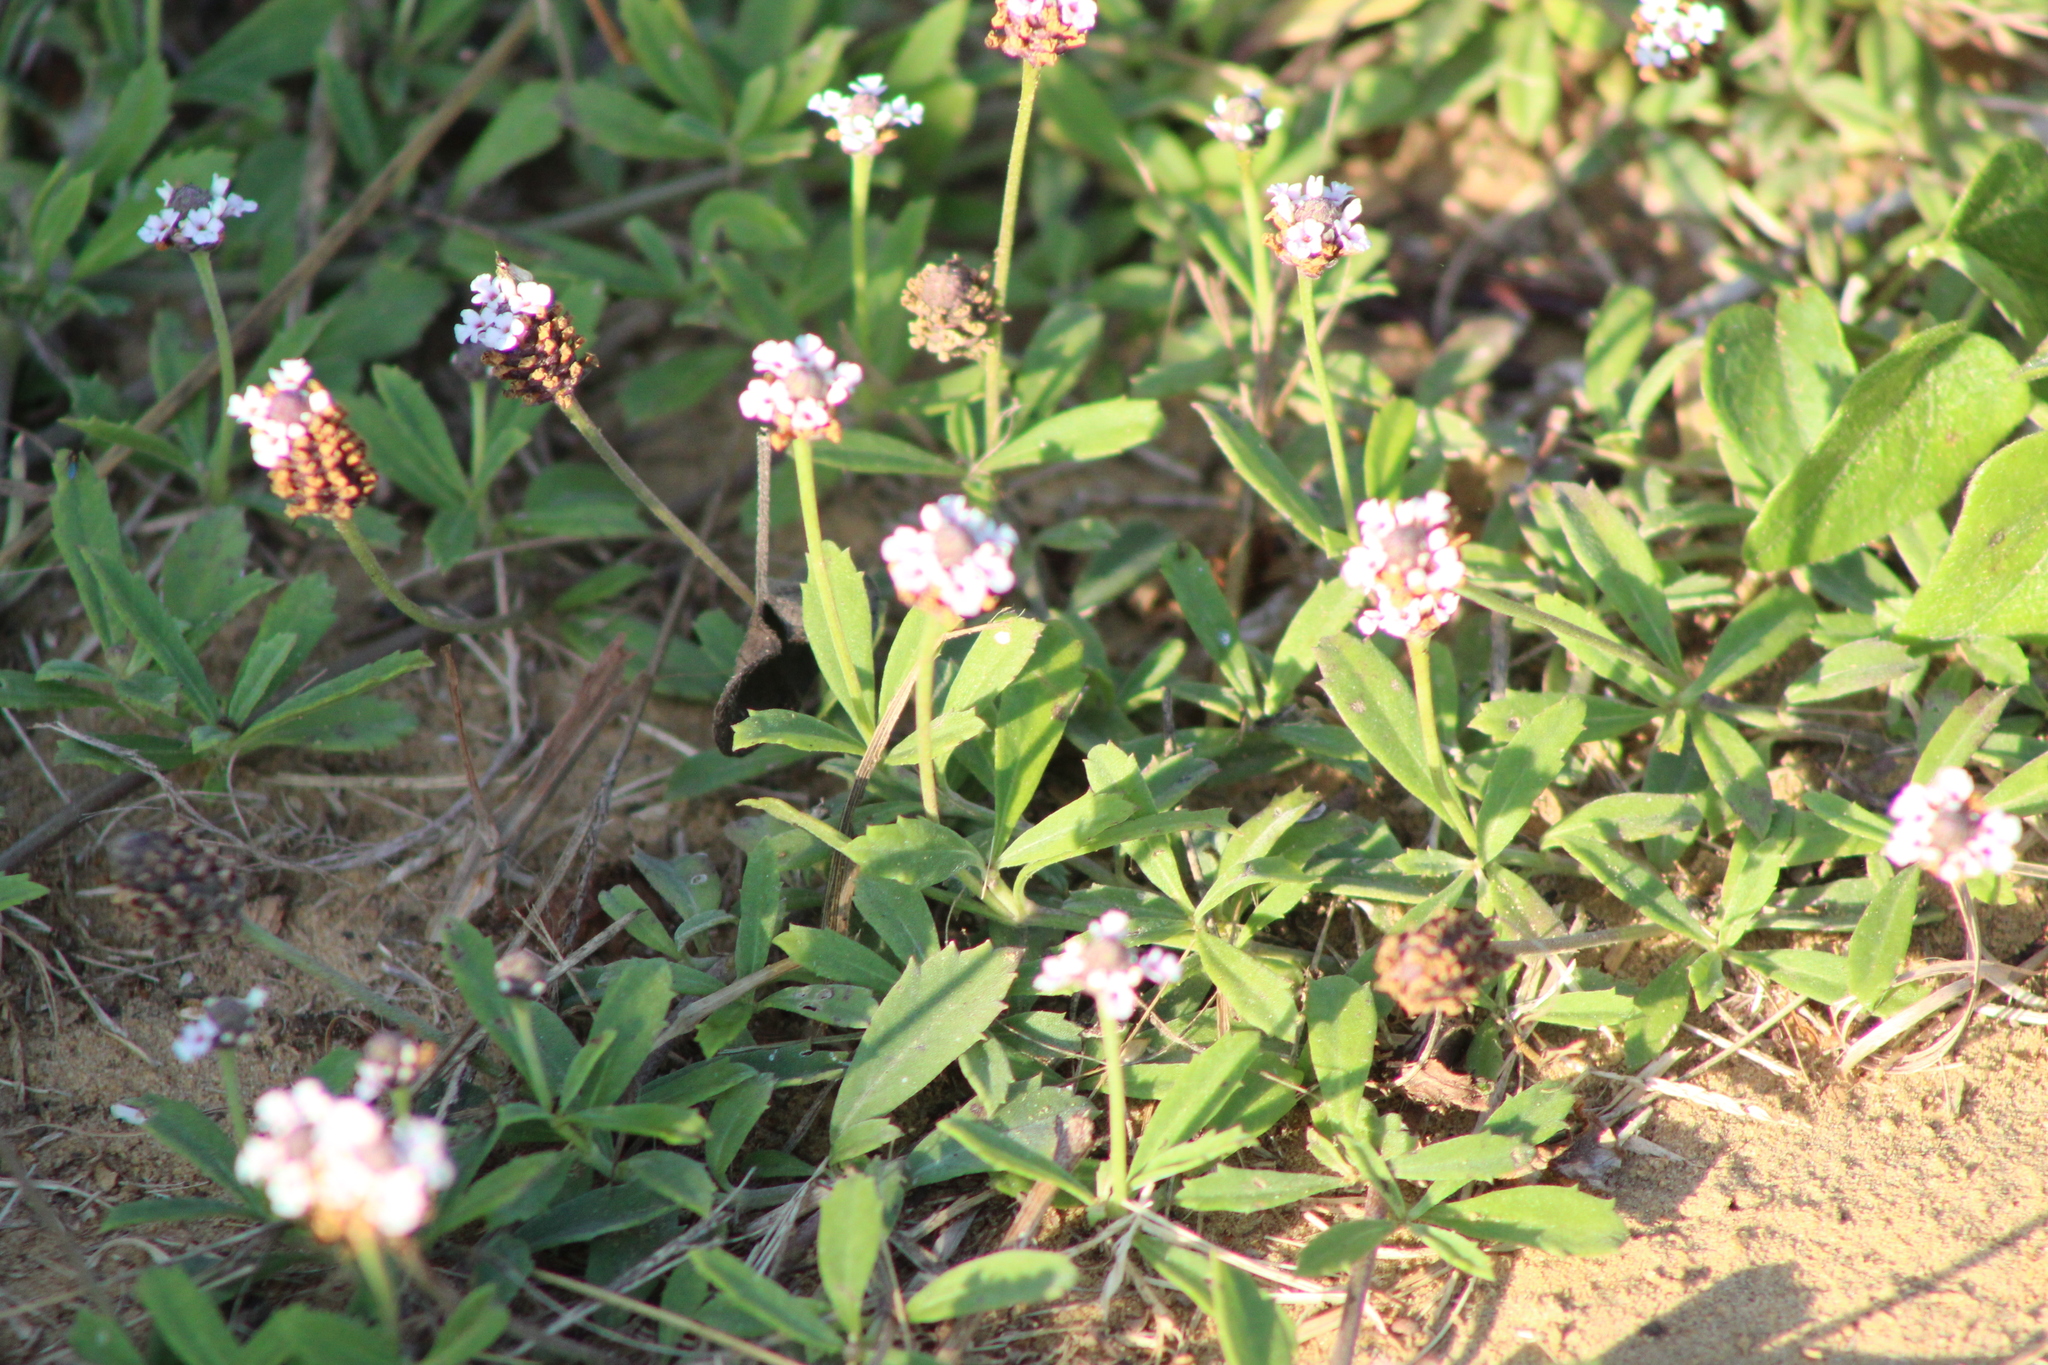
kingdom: Plantae
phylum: Tracheophyta
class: Magnoliopsida
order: Lamiales
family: Verbenaceae
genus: Phyla
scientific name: Phyla nodiflora
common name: Frogfruit
